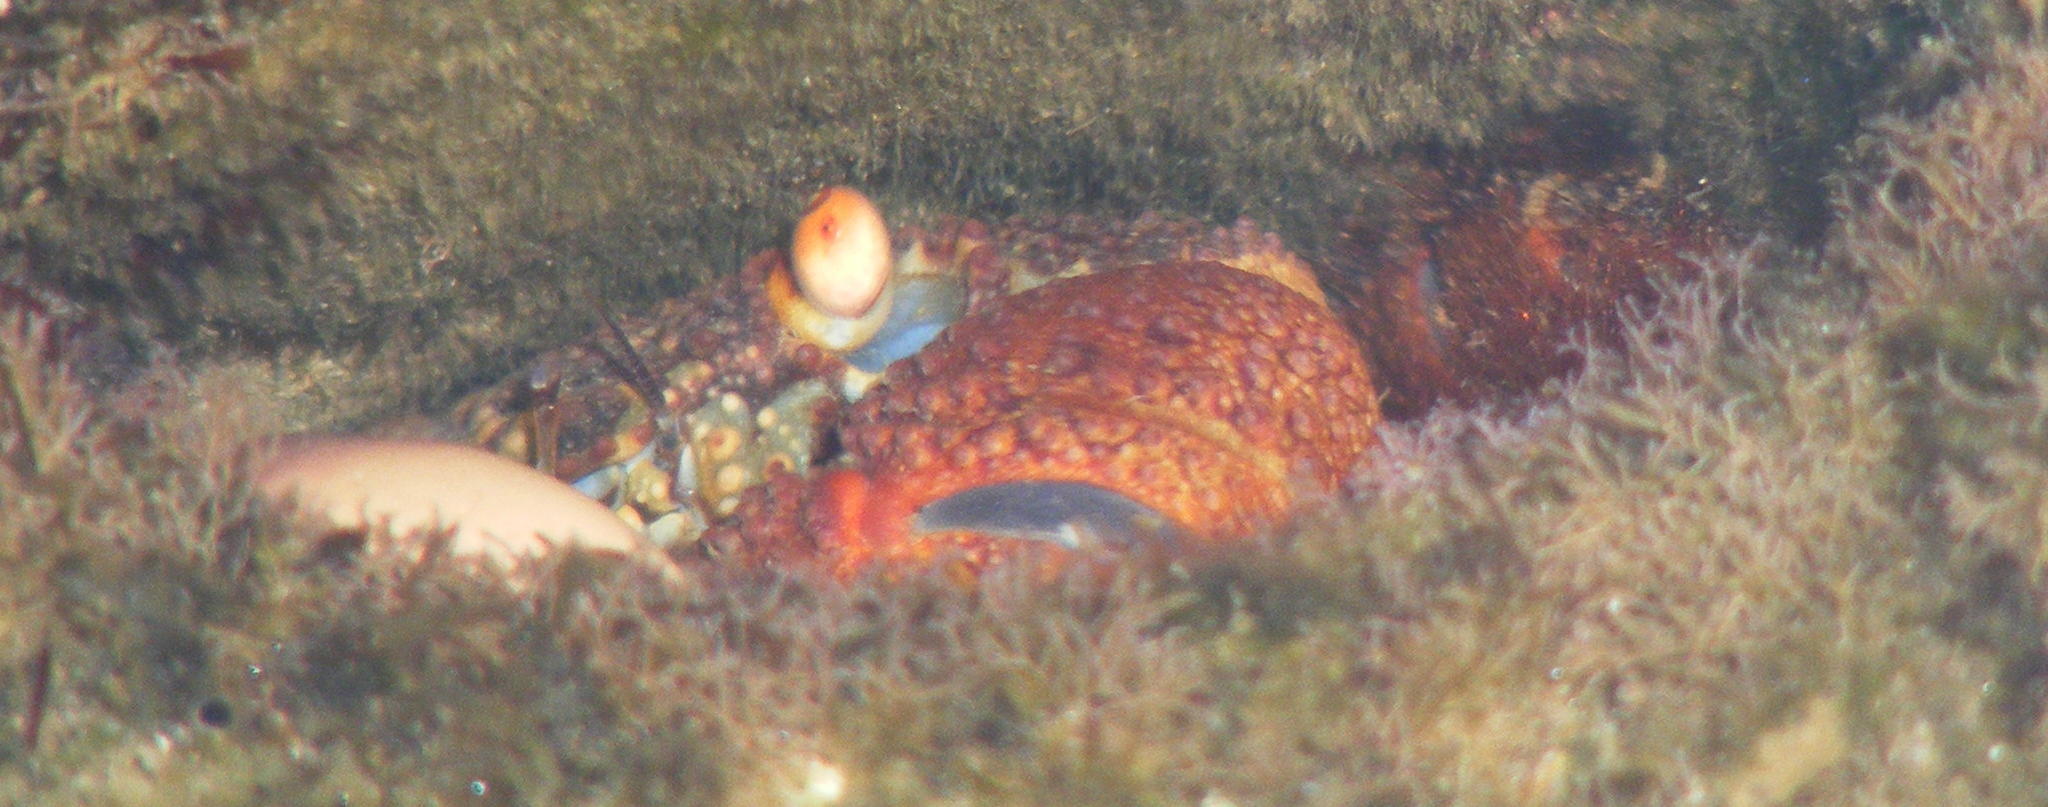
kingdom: Animalia
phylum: Arthropoda
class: Malacostraca
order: Decapoda
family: Eriphiidae
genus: Eriphia
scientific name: Eriphia smithii
